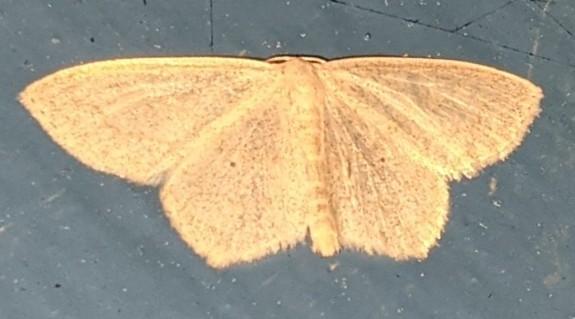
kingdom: Animalia
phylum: Arthropoda
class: Insecta
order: Lepidoptera
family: Geometridae
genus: Scopula
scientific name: Scopula limboundata
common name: Large lace border
